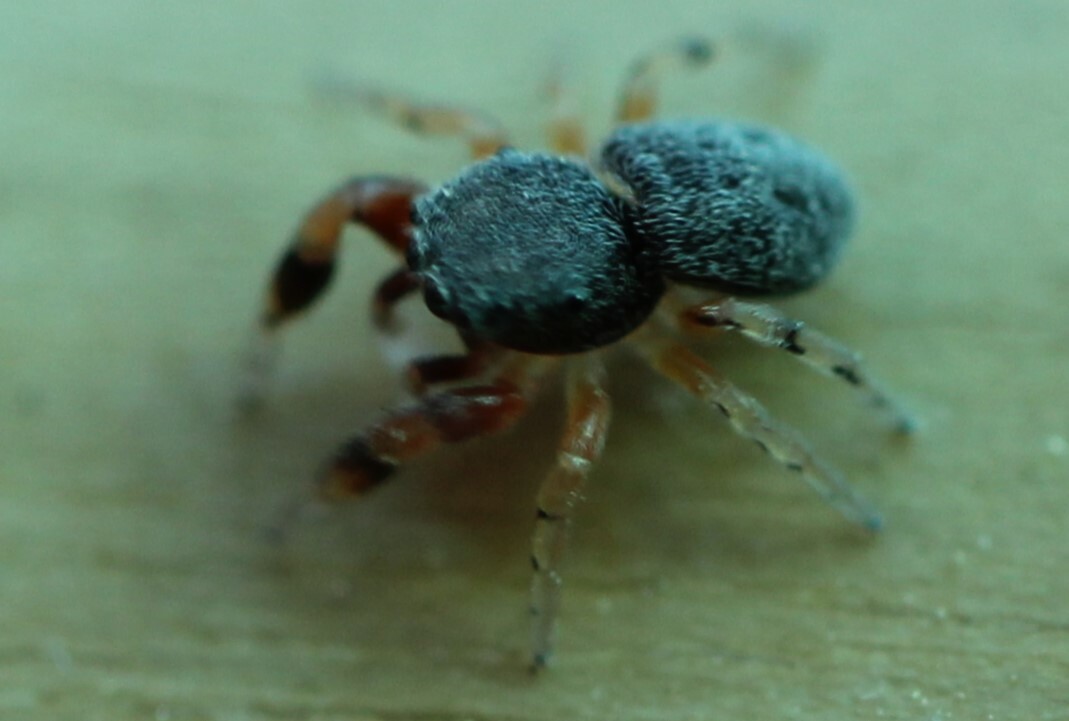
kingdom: Animalia
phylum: Arthropoda
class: Arachnida
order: Araneae
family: Salticidae
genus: Ballus
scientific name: Ballus chalybeius
